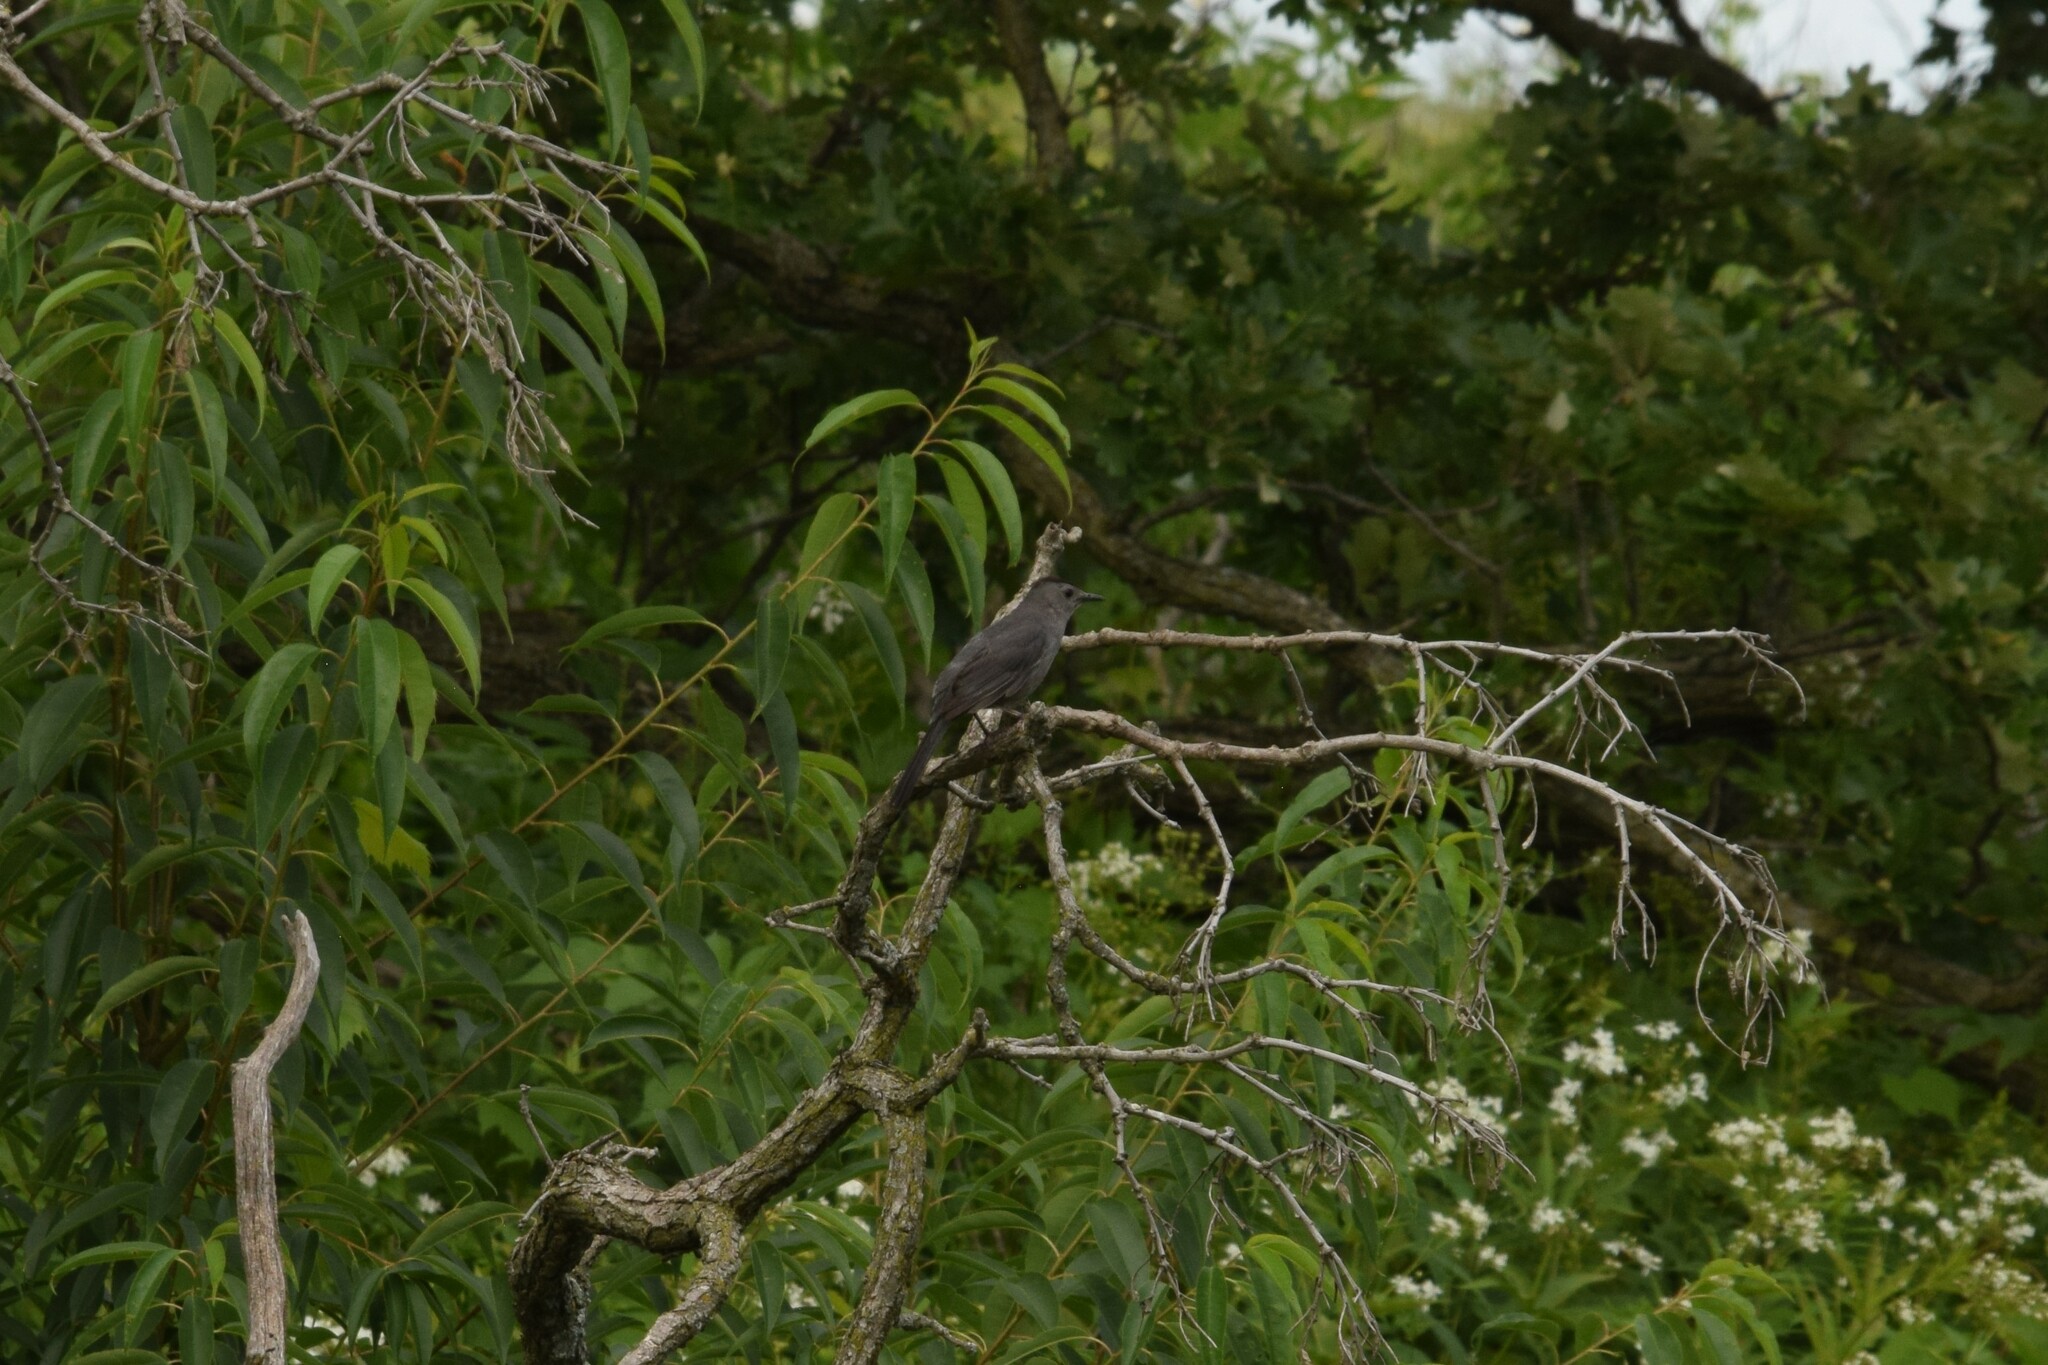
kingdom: Animalia
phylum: Chordata
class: Aves
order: Passeriformes
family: Mimidae
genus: Dumetella
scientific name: Dumetella carolinensis
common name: Gray catbird
